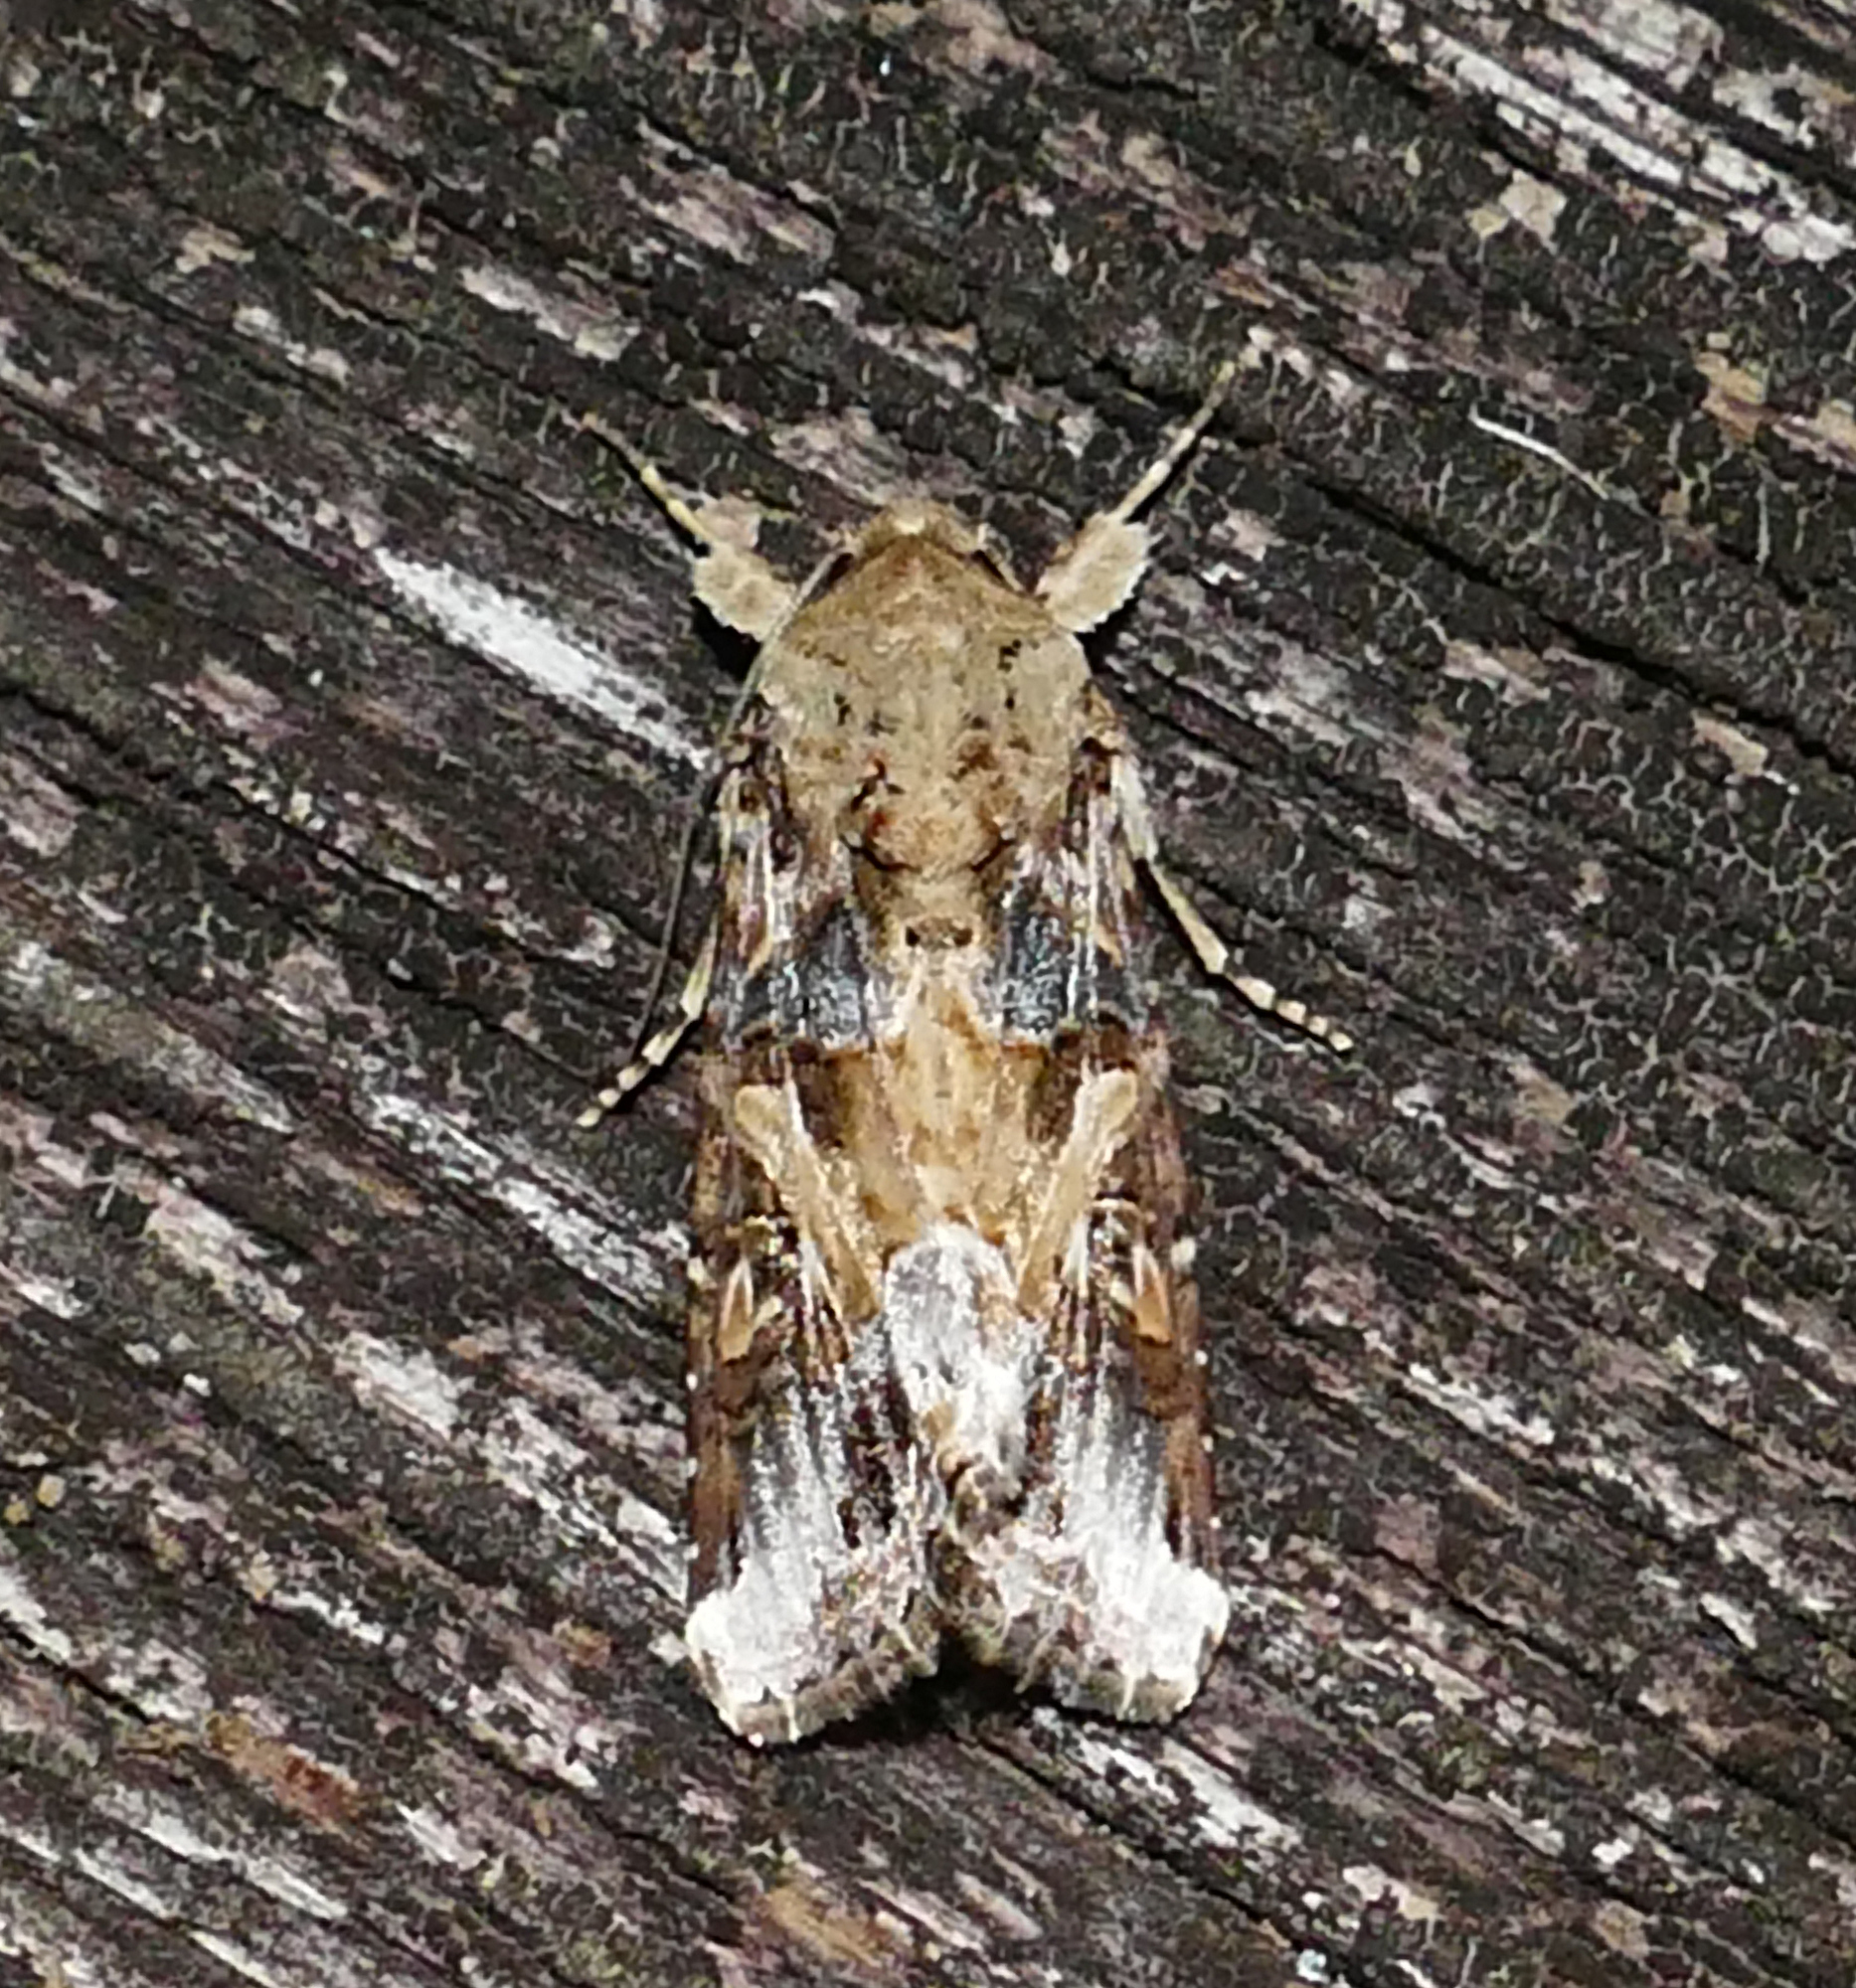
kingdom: Animalia
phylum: Arthropoda
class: Insecta
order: Lepidoptera
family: Noctuidae
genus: Spodoptera
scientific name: Spodoptera latifascia
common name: Velvet armyworm moth
